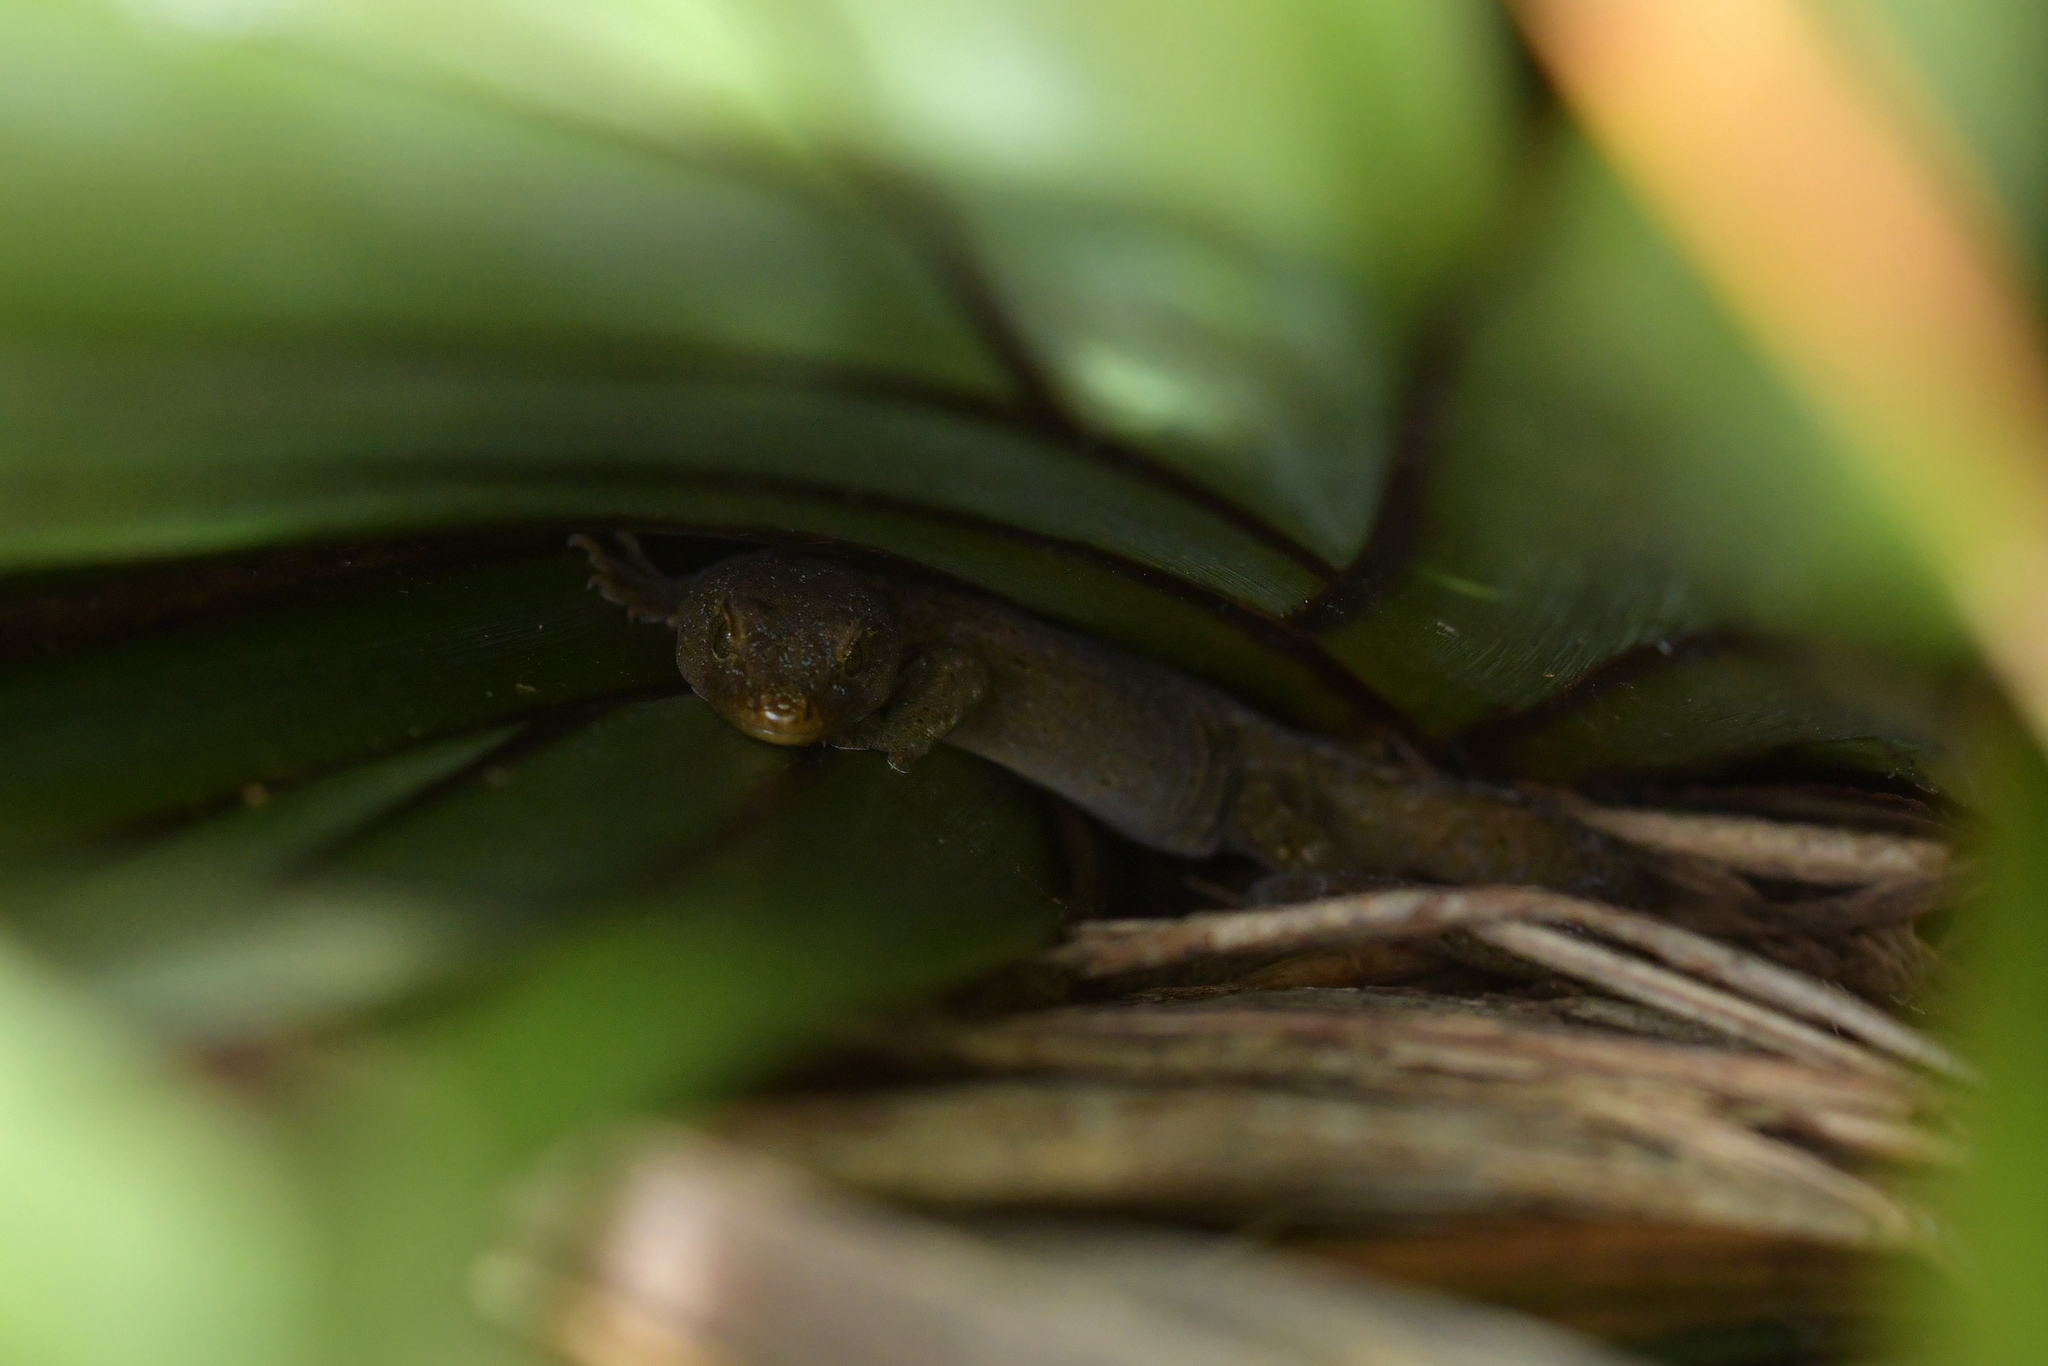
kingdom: Animalia
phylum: Chordata
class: Squamata
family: Diplodactylidae
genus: Woodworthia
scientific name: Woodworthia maculata
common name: Raukawa gecko
